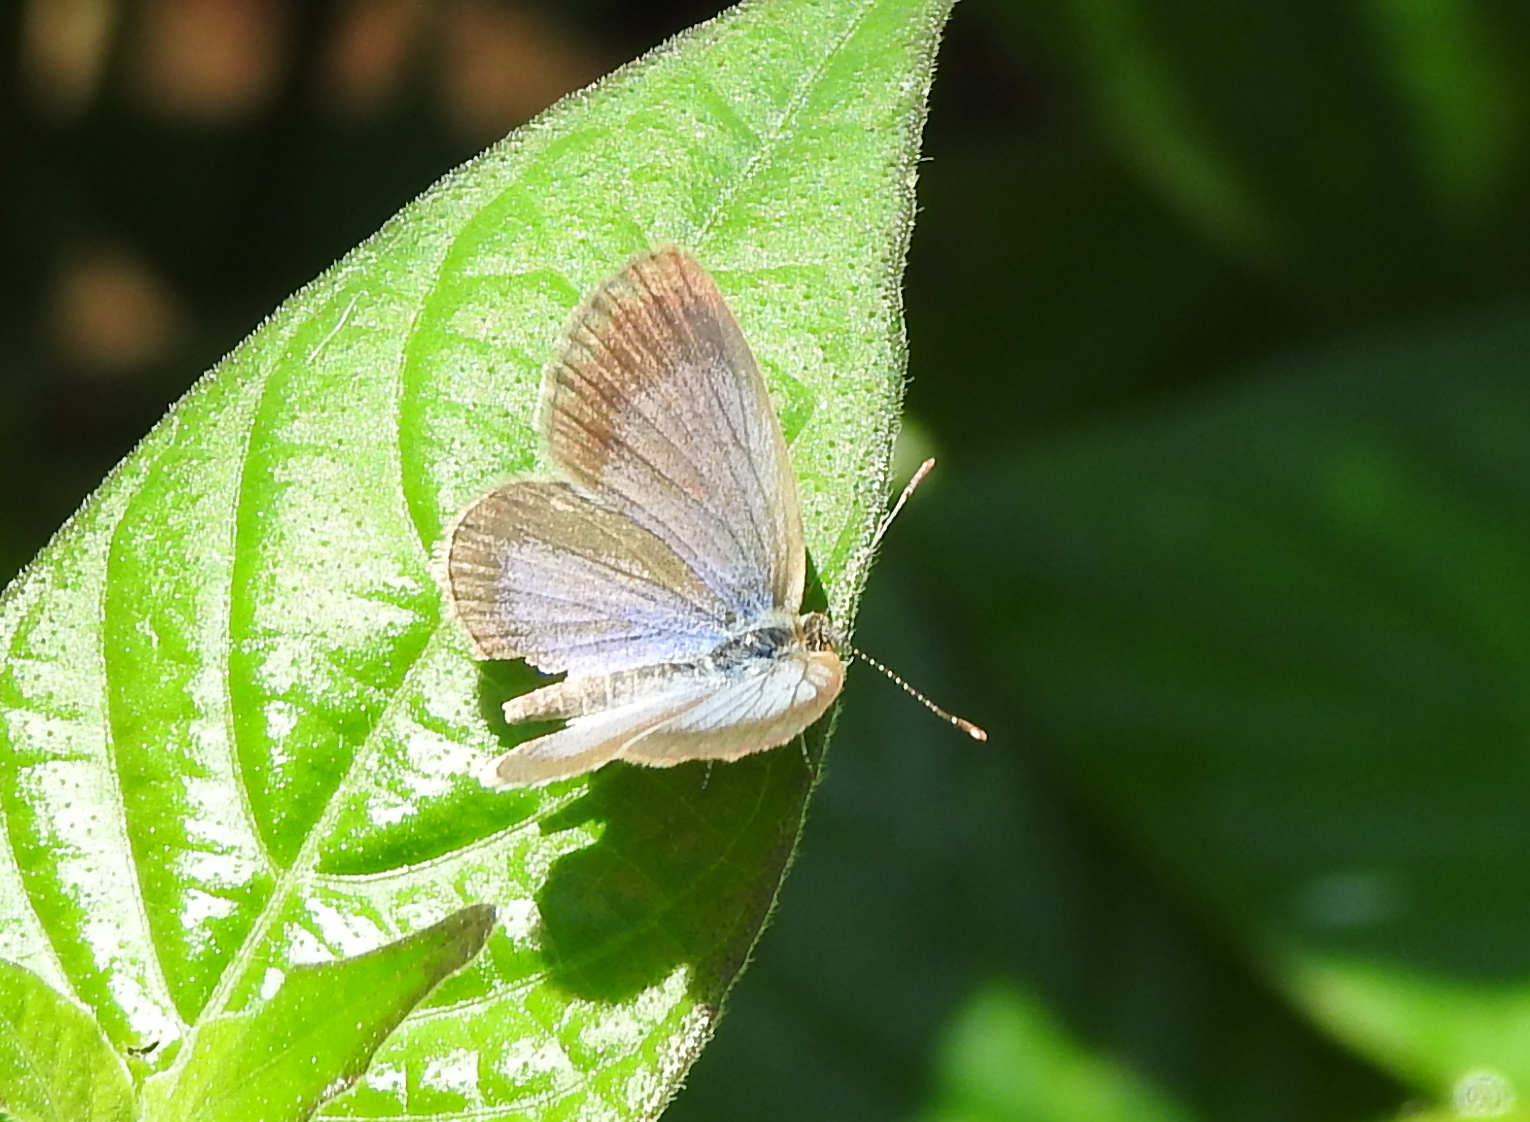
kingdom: Animalia
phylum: Arthropoda
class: Insecta
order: Lepidoptera
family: Lycaenidae
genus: Zizina
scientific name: Zizina otis
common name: Lesser grass blue
